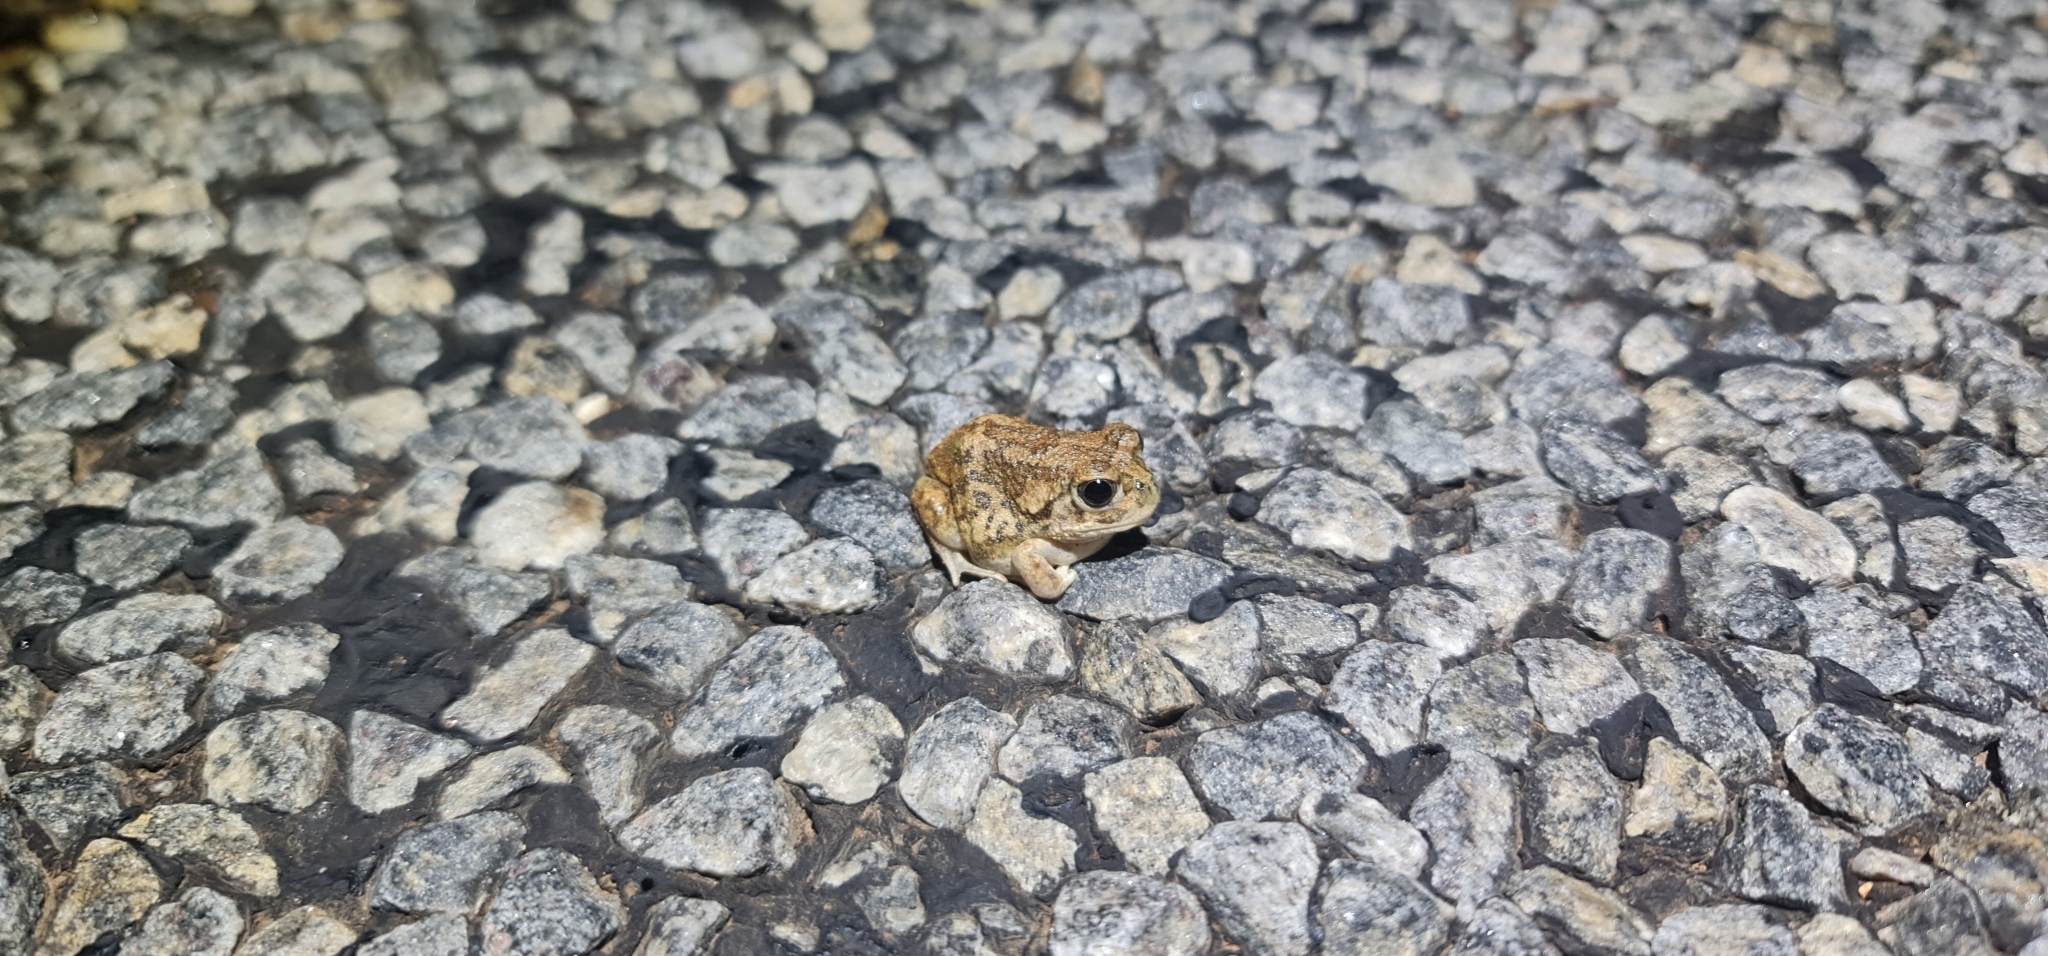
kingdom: Animalia
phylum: Chordata
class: Amphibia
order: Anura
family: Limnodynastidae
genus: Neobatrachus
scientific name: Neobatrachus sudelli
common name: Common spadefoot toad
